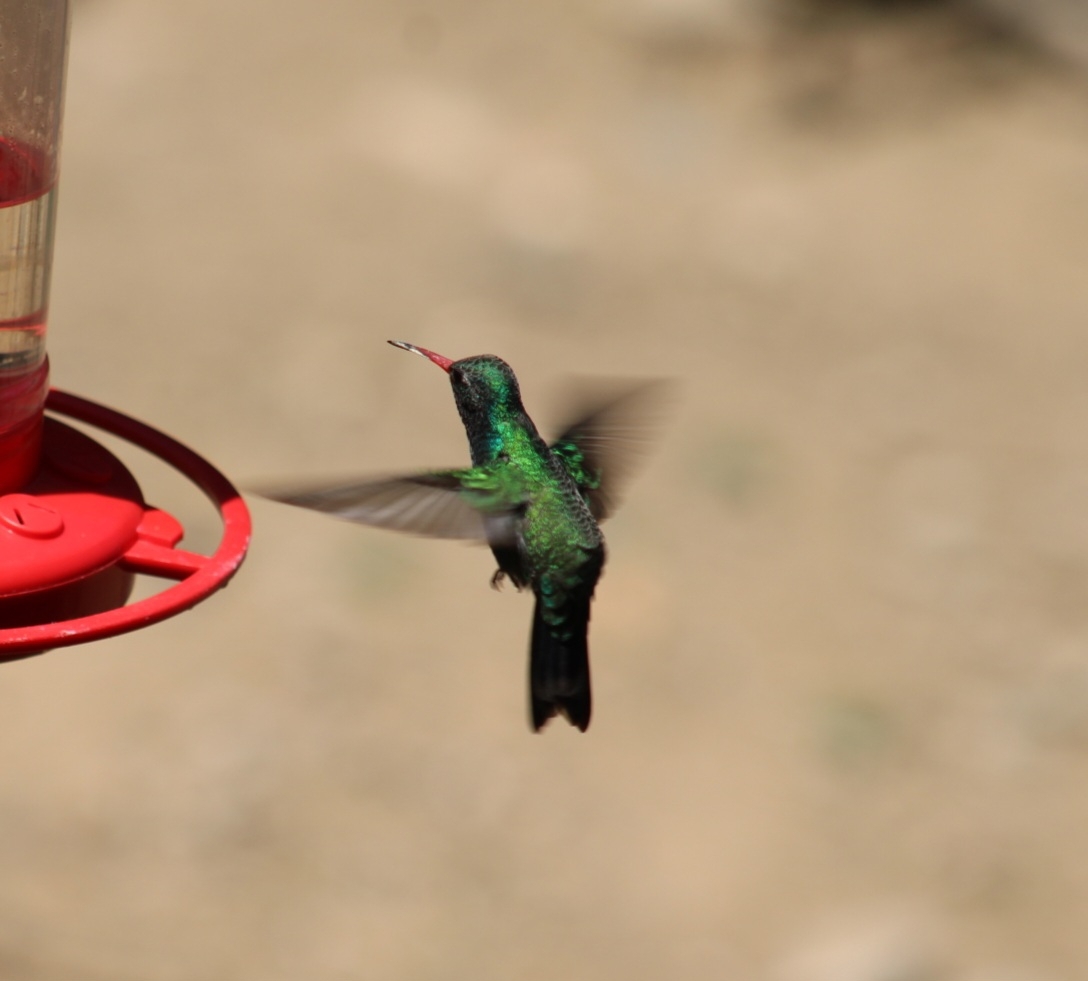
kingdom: Animalia
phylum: Chordata
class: Aves
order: Apodiformes
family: Trochilidae
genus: Cynanthus
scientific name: Cynanthus latirostris
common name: Broad-billed hummingbird
